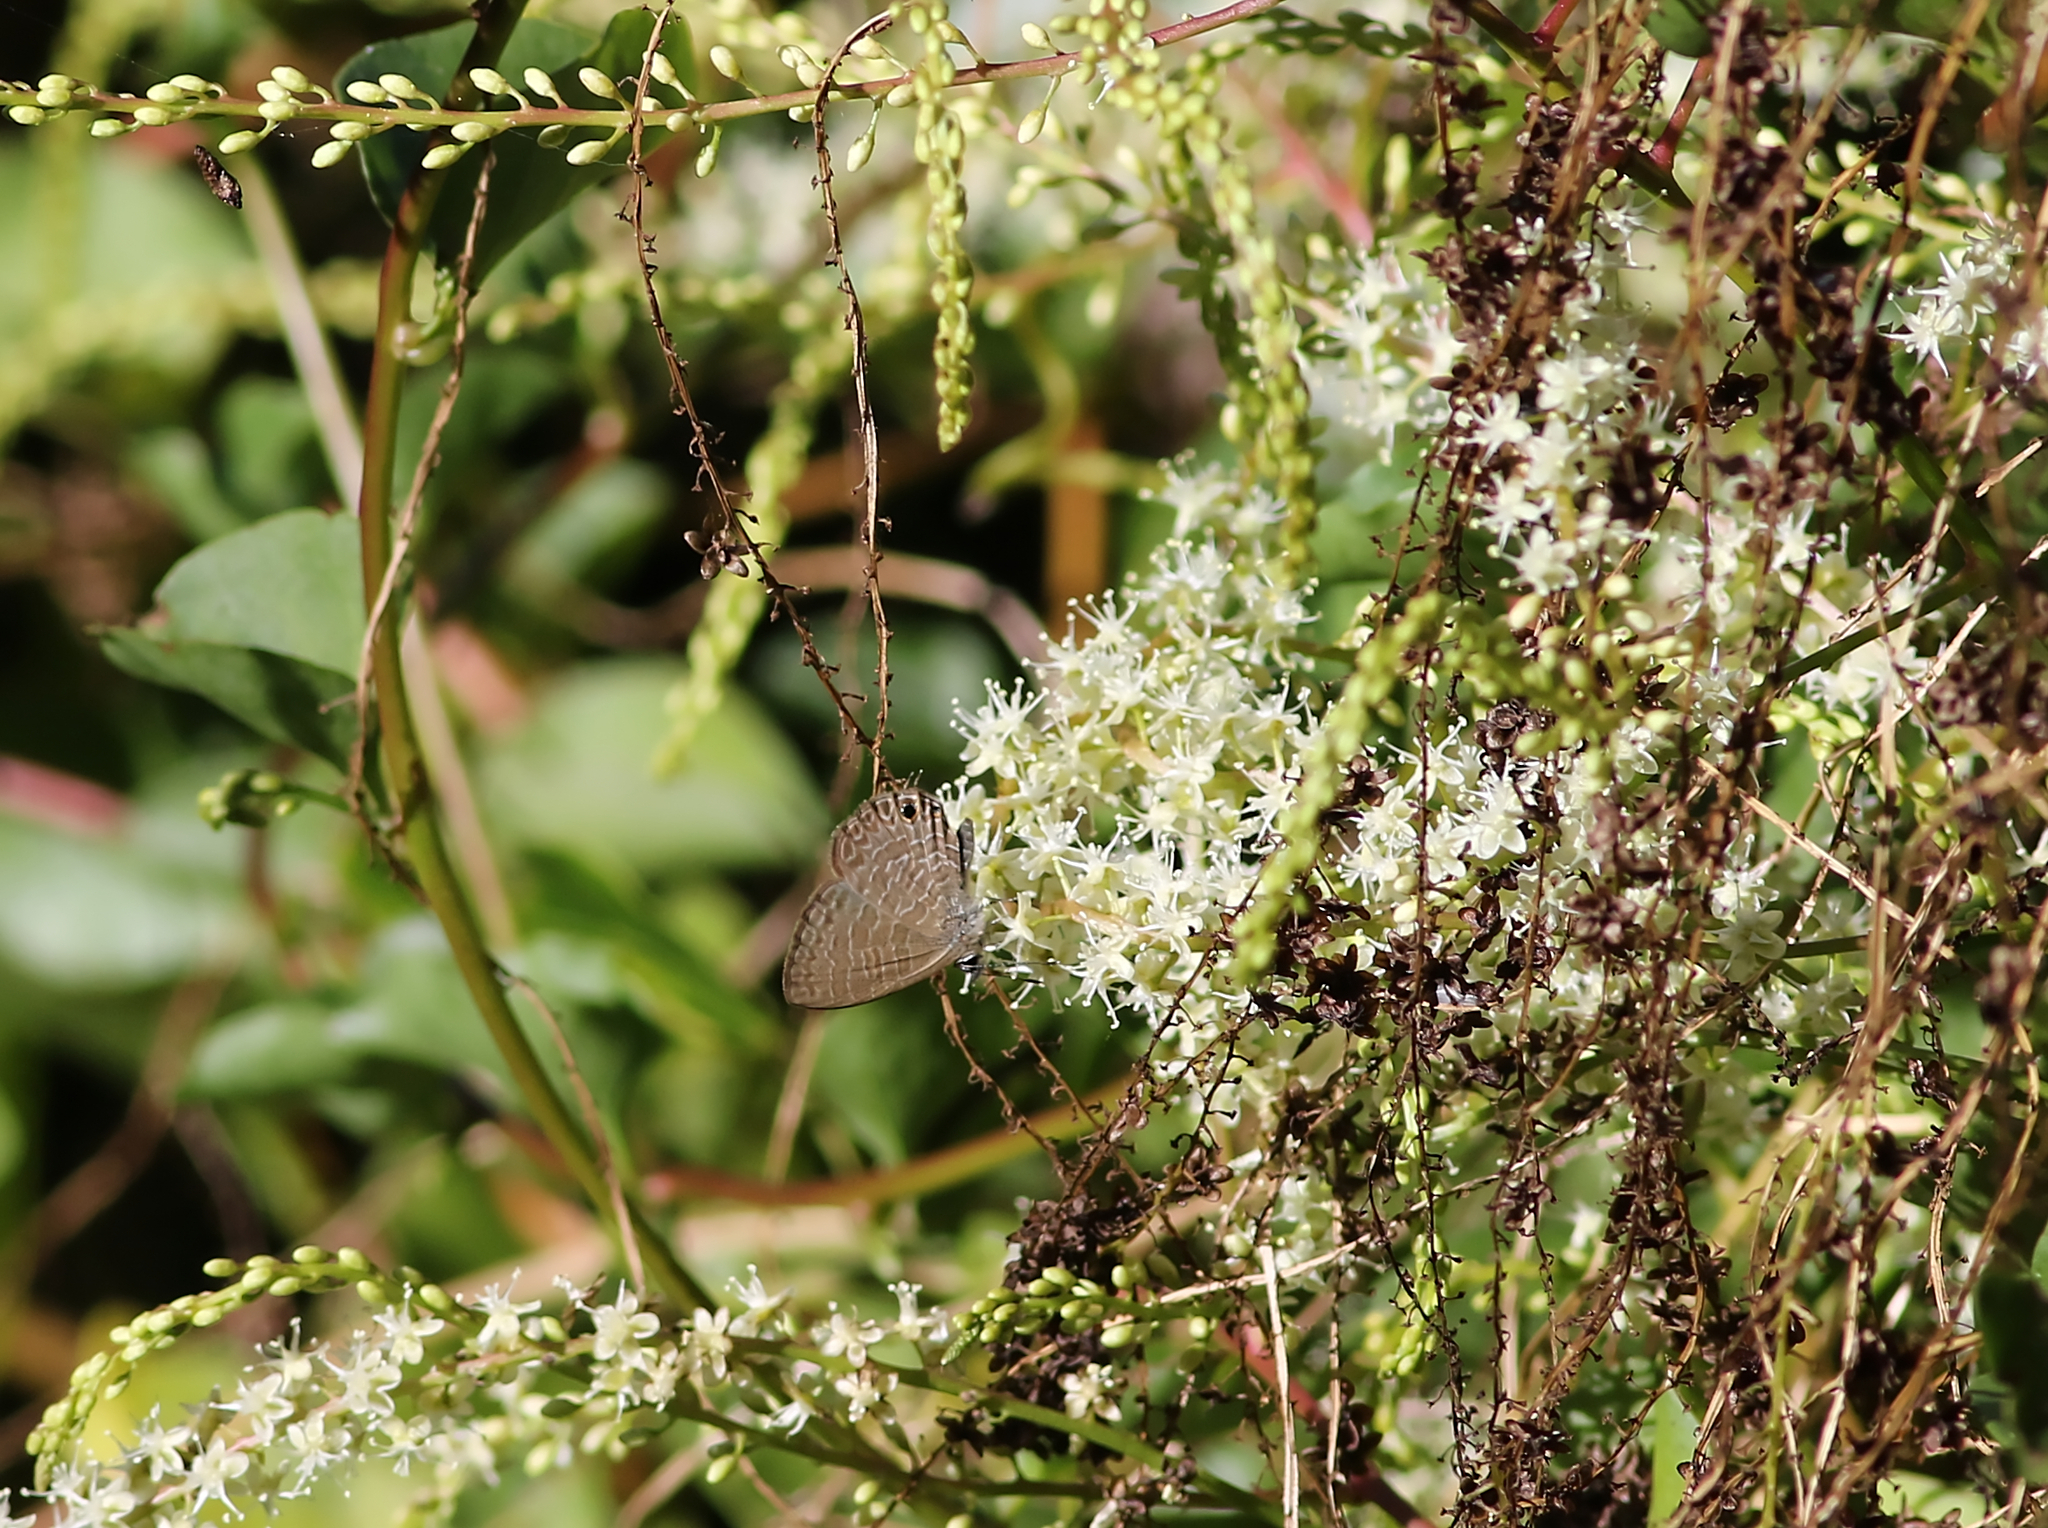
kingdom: Animalia
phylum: Arthropoda
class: Insecta
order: Lepidoptera
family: Lycaenidae
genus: Nacaduba
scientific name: Nacaduba berenice
